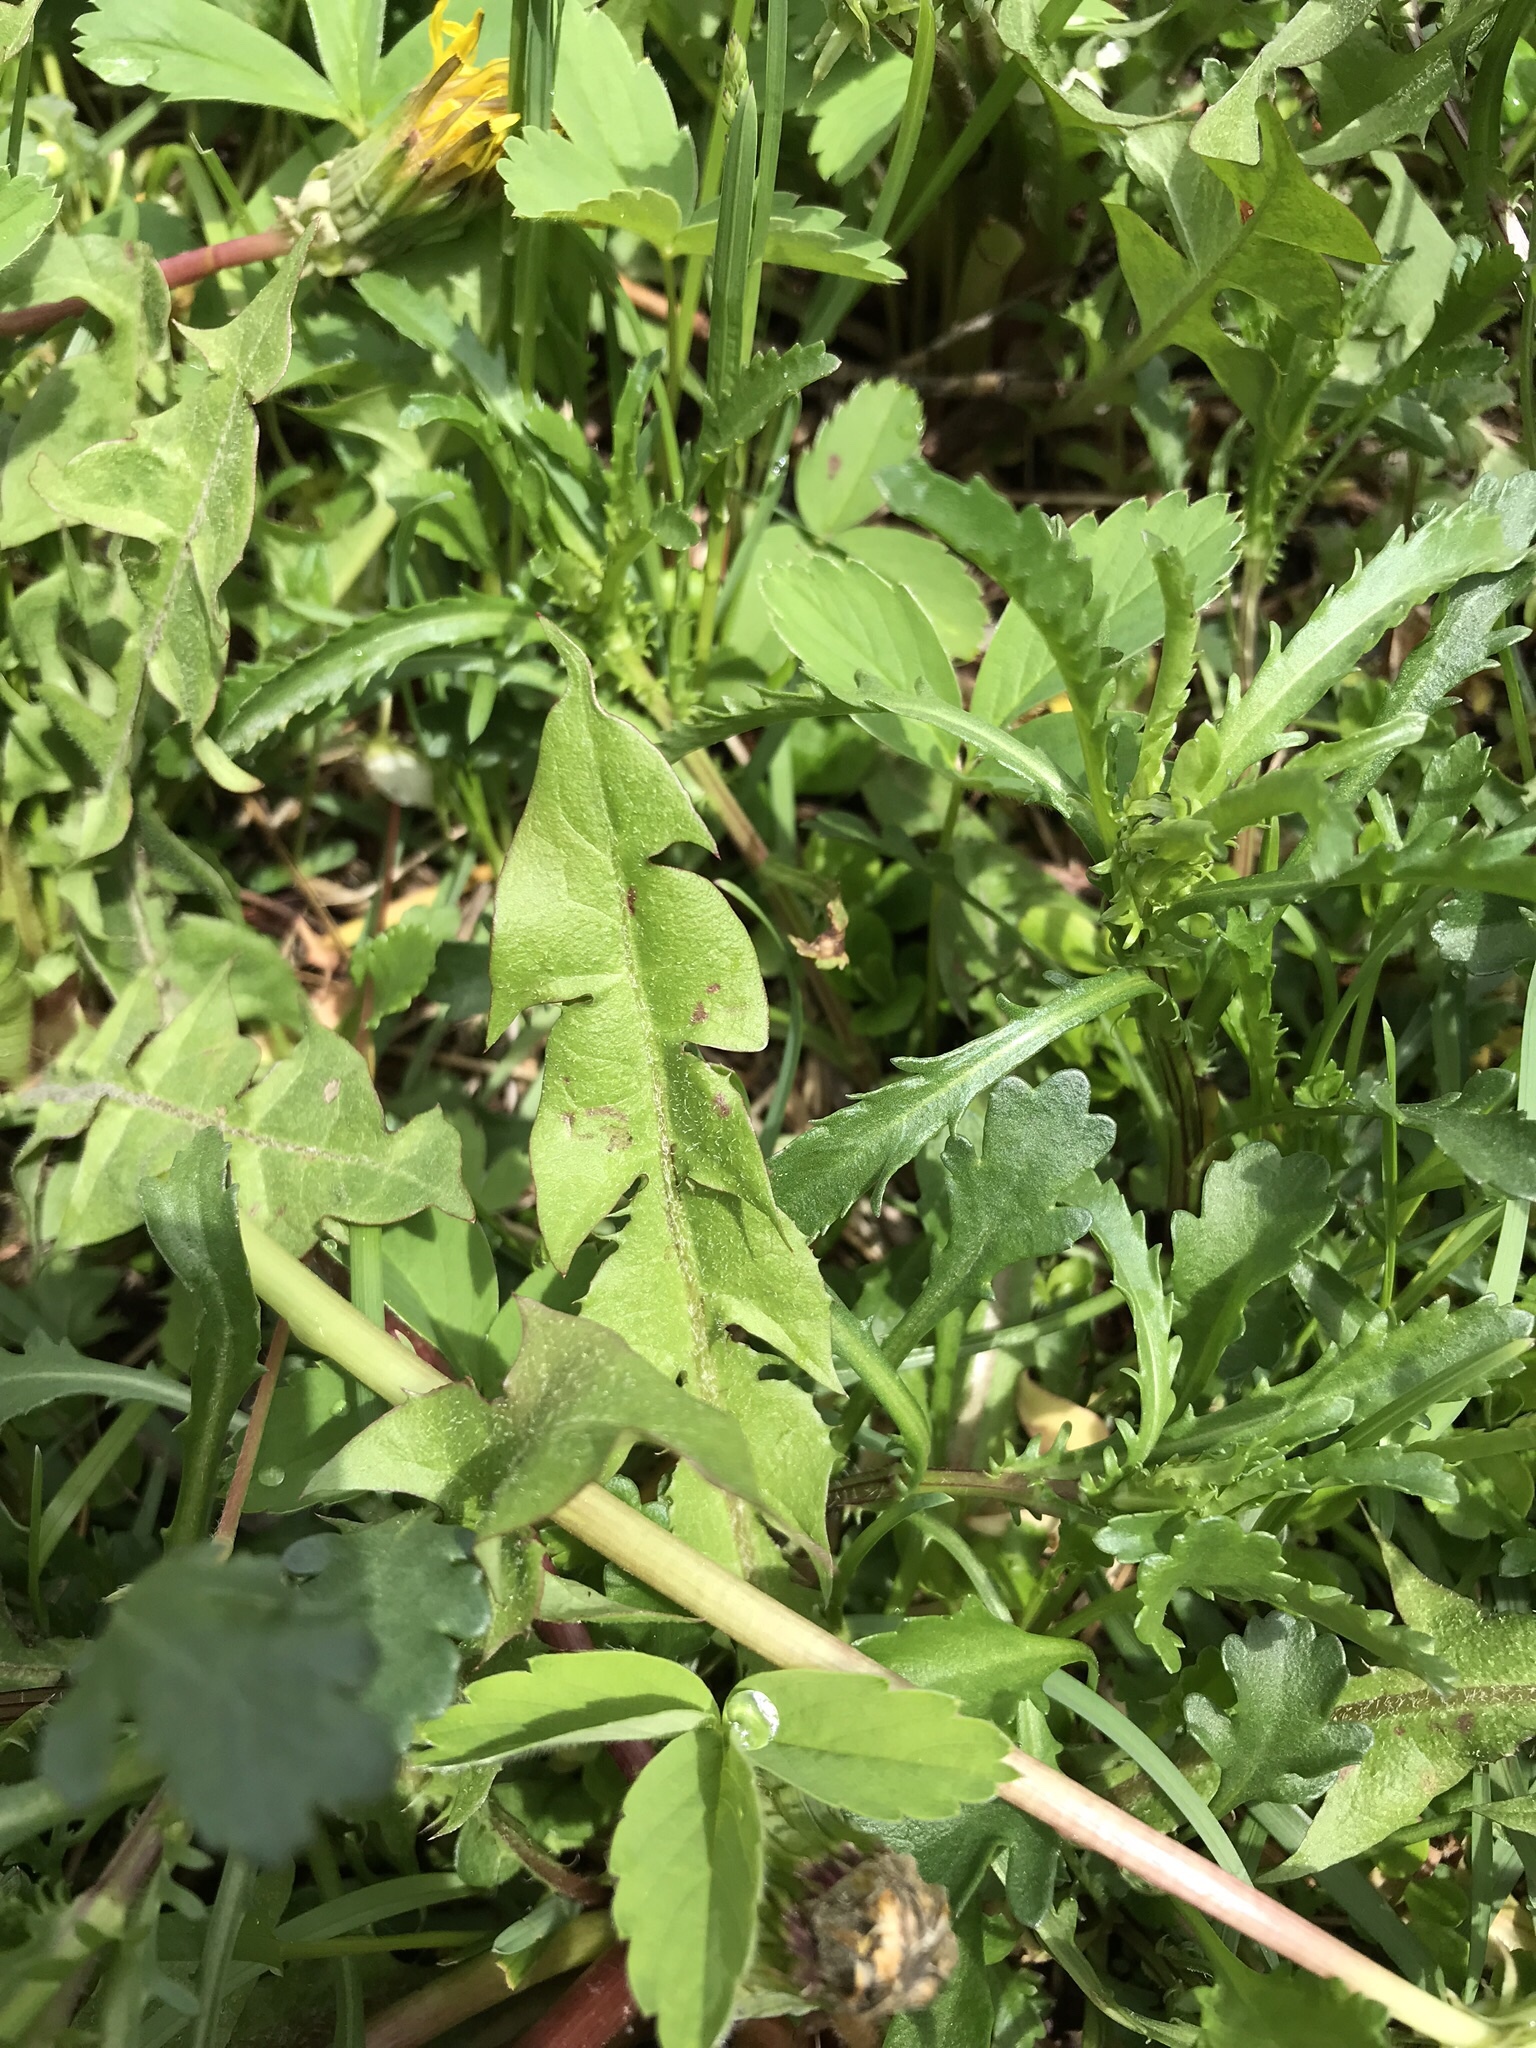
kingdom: Plantae
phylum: Tracheophyta
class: Magnoliopsida
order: Asterales
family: Asteraceae
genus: Taraxacum
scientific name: Taraxacum officinale
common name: Common dandelion
